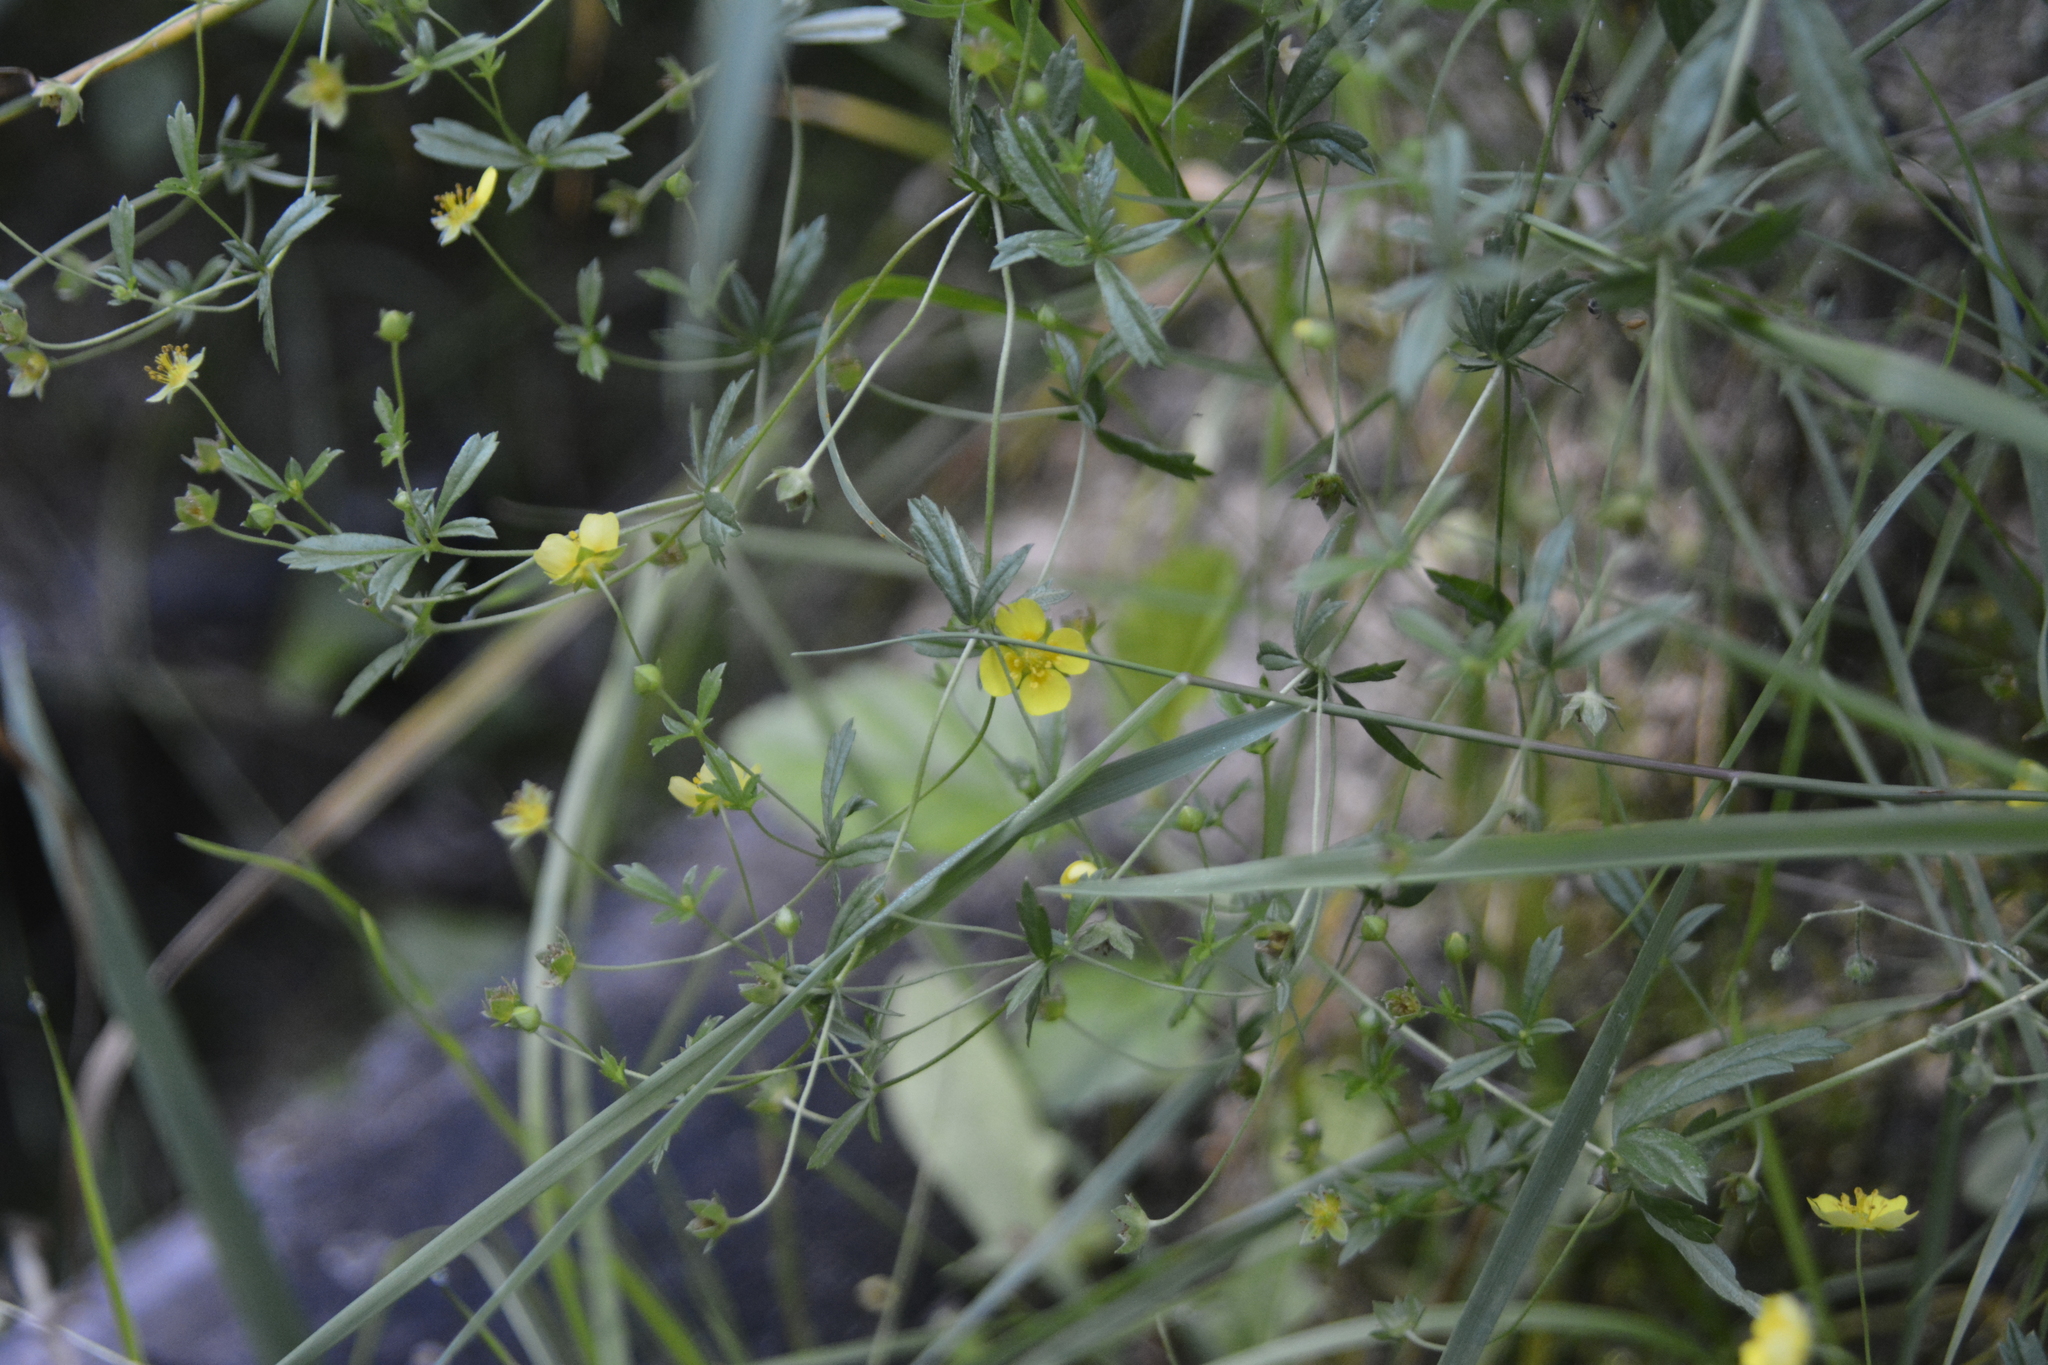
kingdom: Plantae
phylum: Tracheophyta
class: Magnoliopsida
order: Rosales
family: Rosaceae
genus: Potentilla
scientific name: Potentilla erecta
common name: Tormentil
